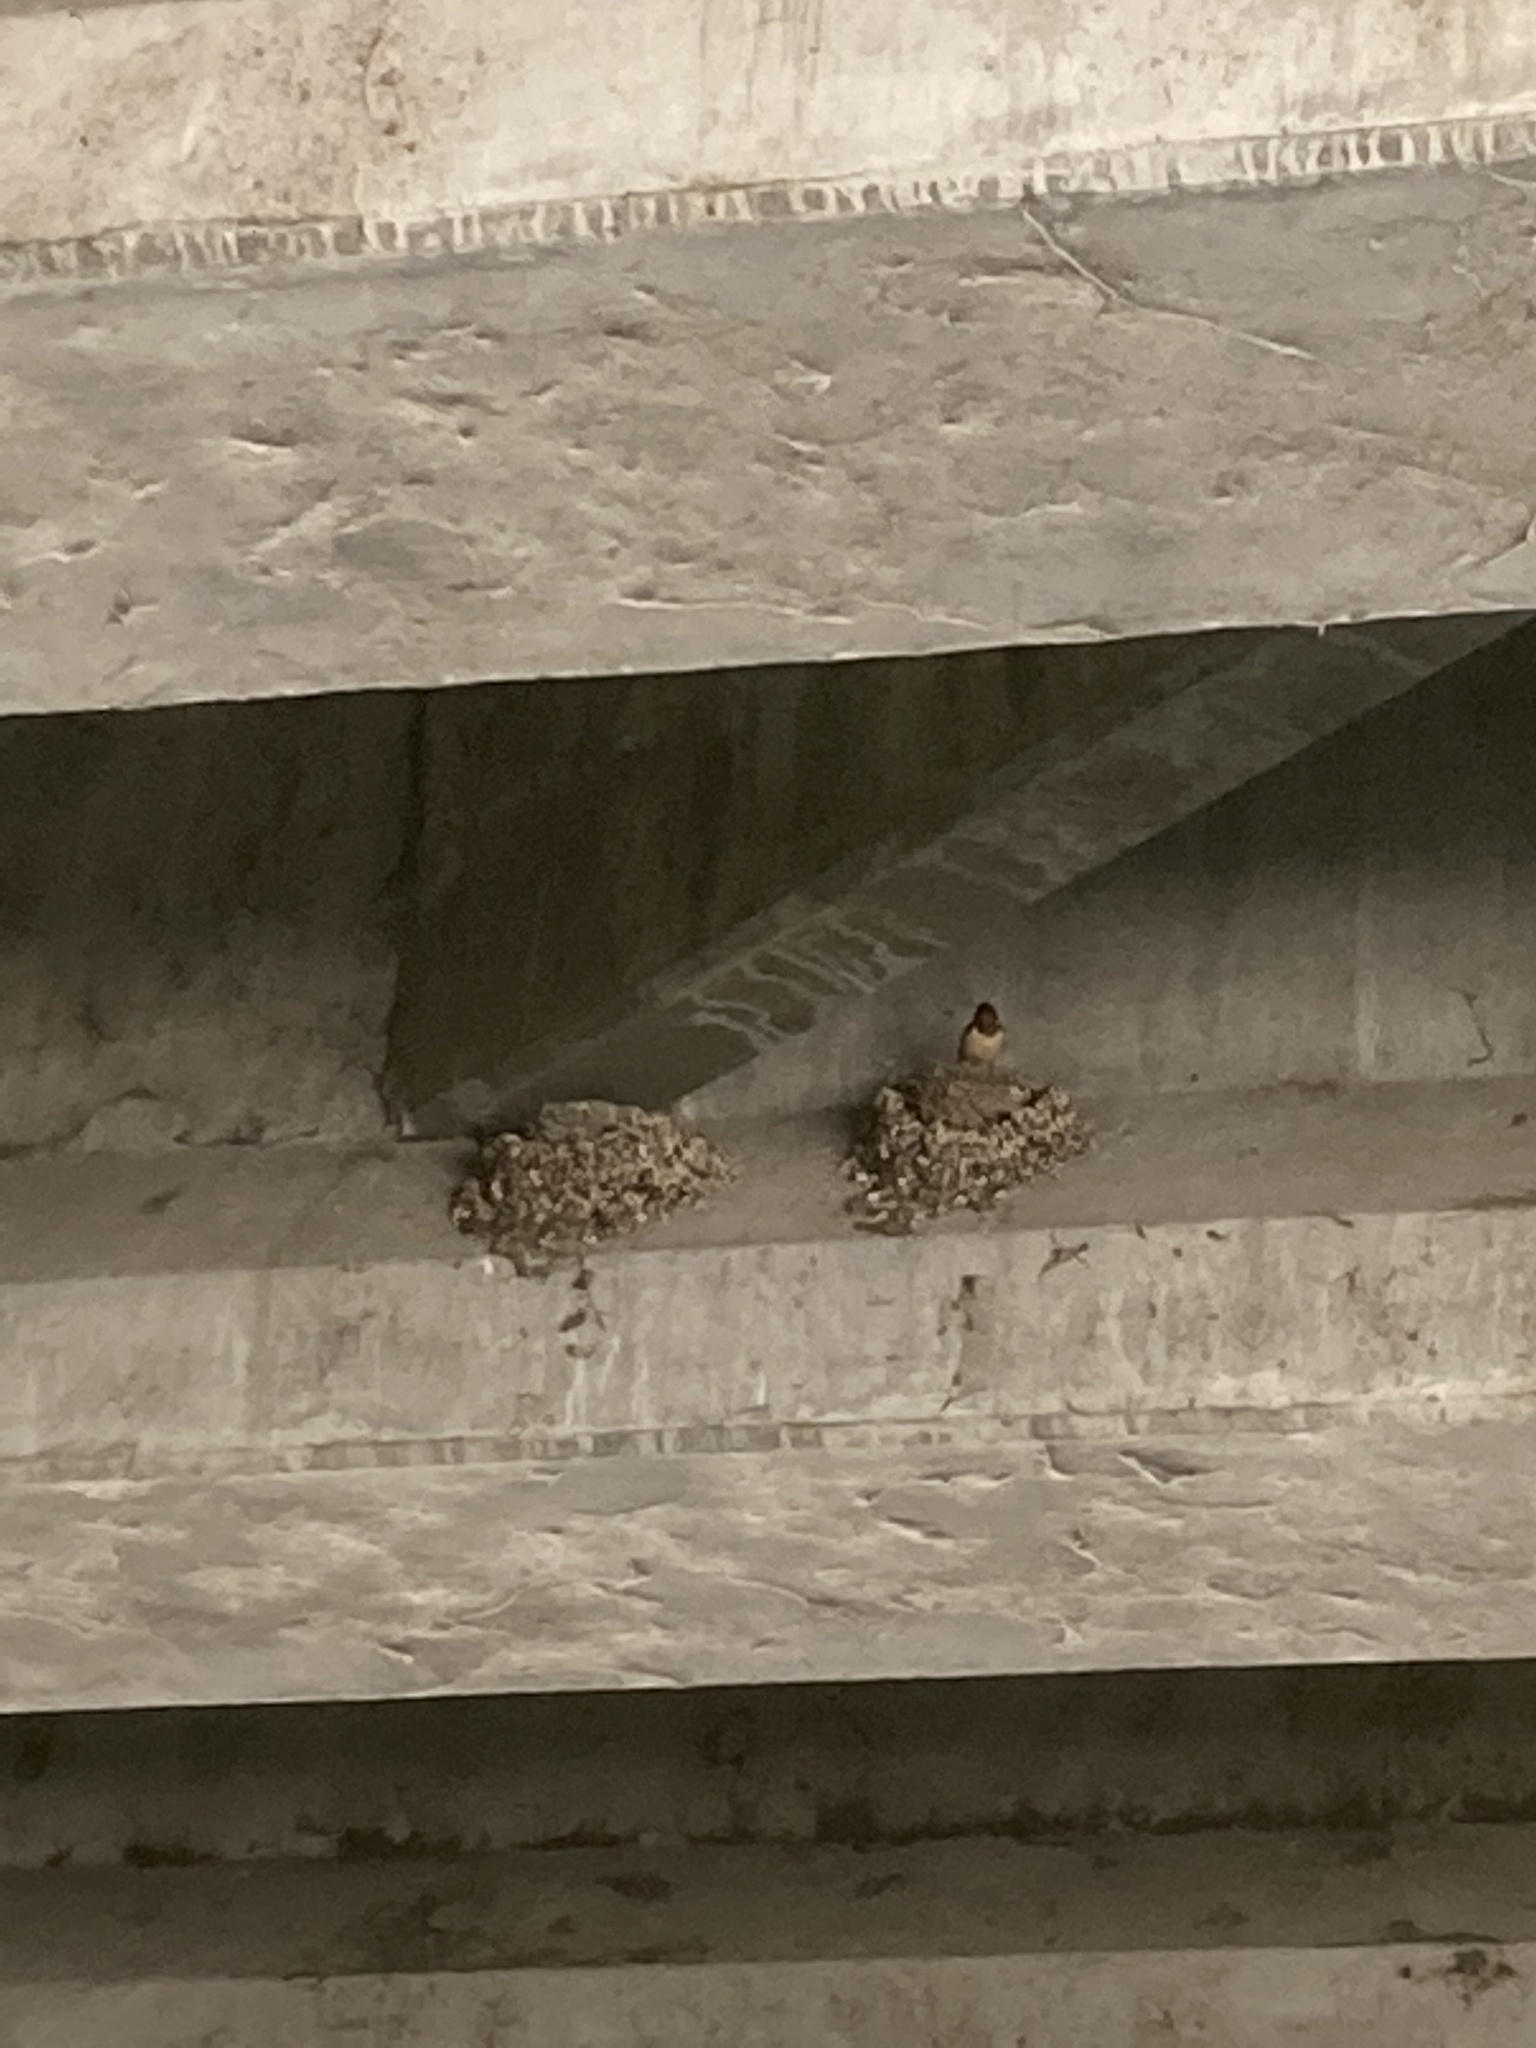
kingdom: Animalia
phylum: Chordata
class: Aves
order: Passeriformes
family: Hirundinidae
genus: Hirundo
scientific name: Hirundo rustica
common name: Barn swallow
